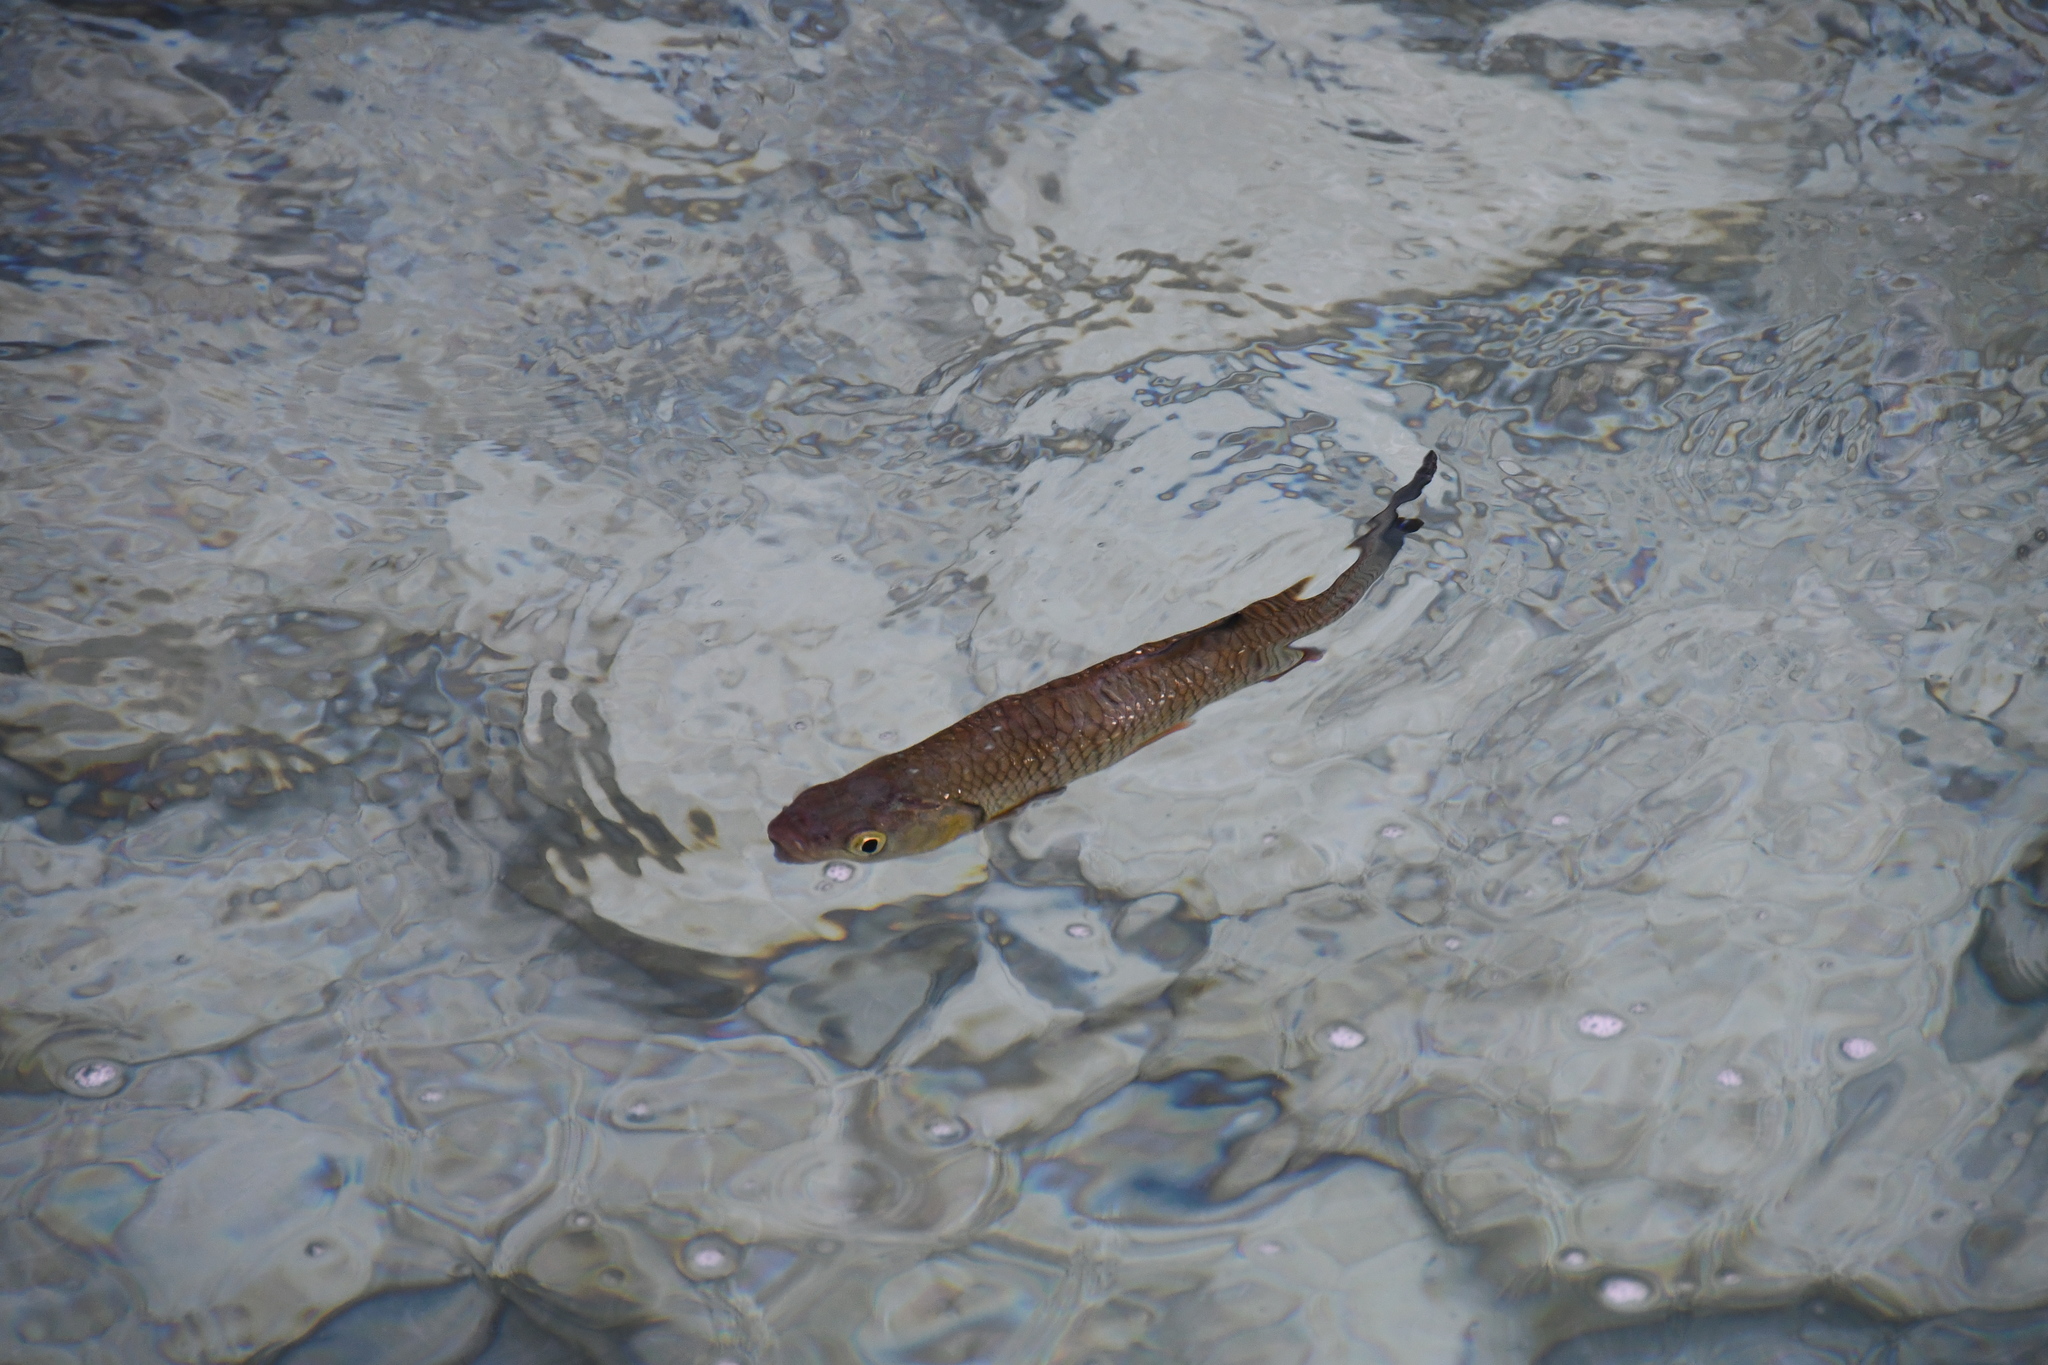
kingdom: Animalia
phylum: Chordata
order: Cypriniformes
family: Cyprinidae
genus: Squalius
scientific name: Squalius cephalus
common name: Chub
